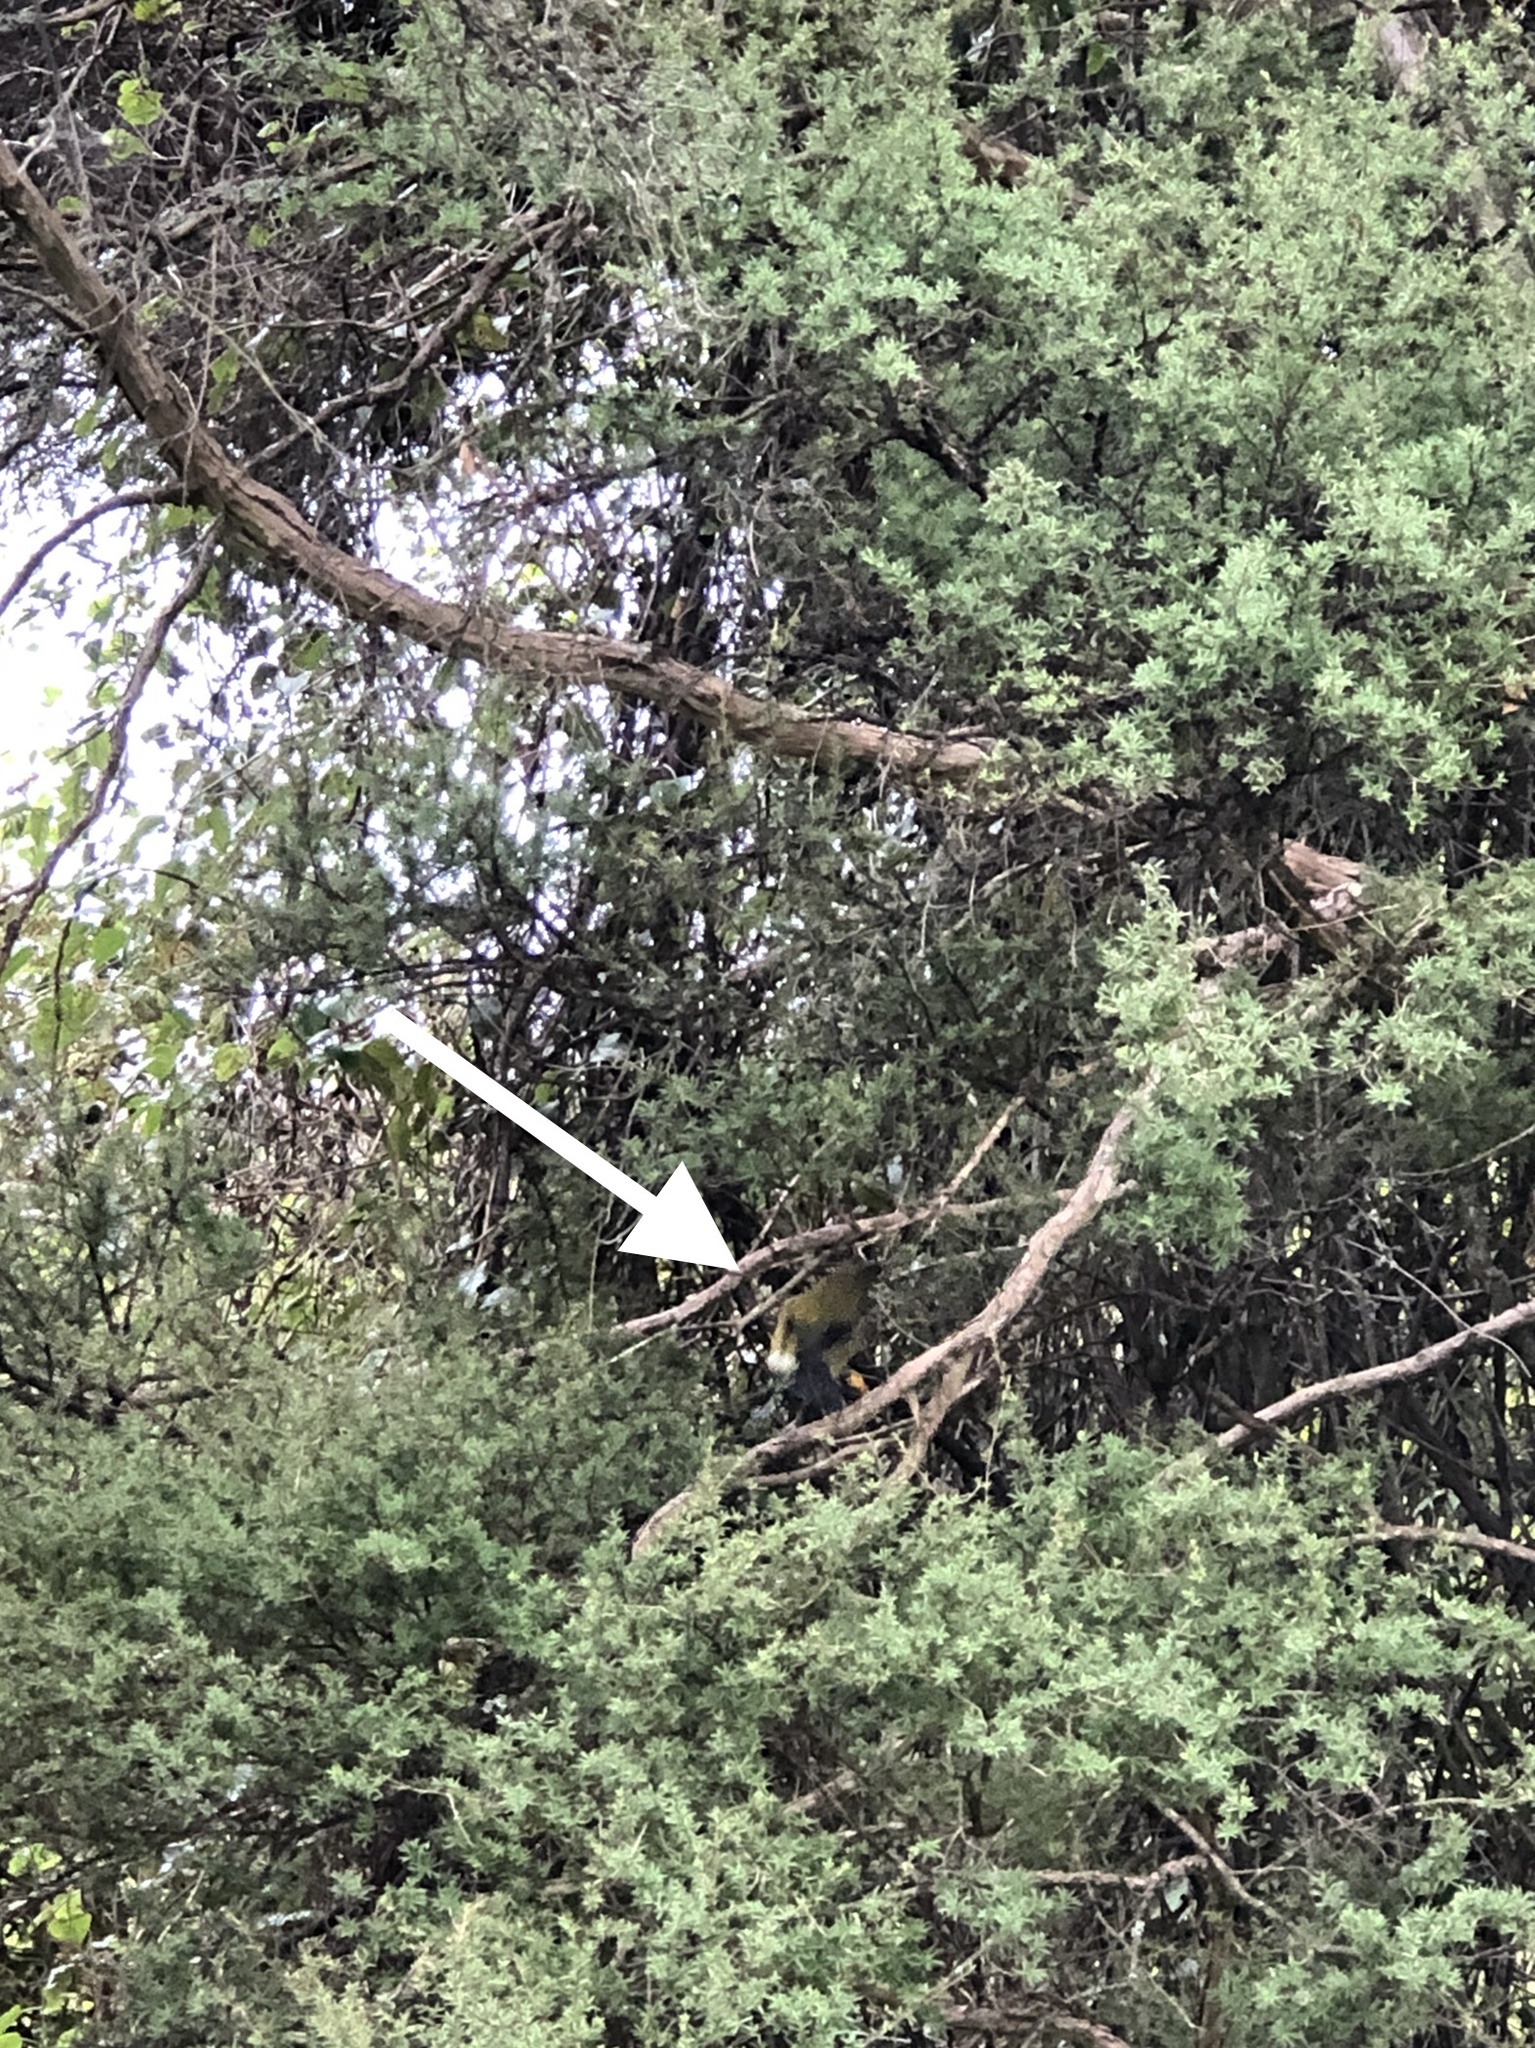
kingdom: Animalia
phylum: Chordata
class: Aves
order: Passeriformes
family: Meliphagidae
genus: Anthornis
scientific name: Anthornis melanura
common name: New zealand bellbird
